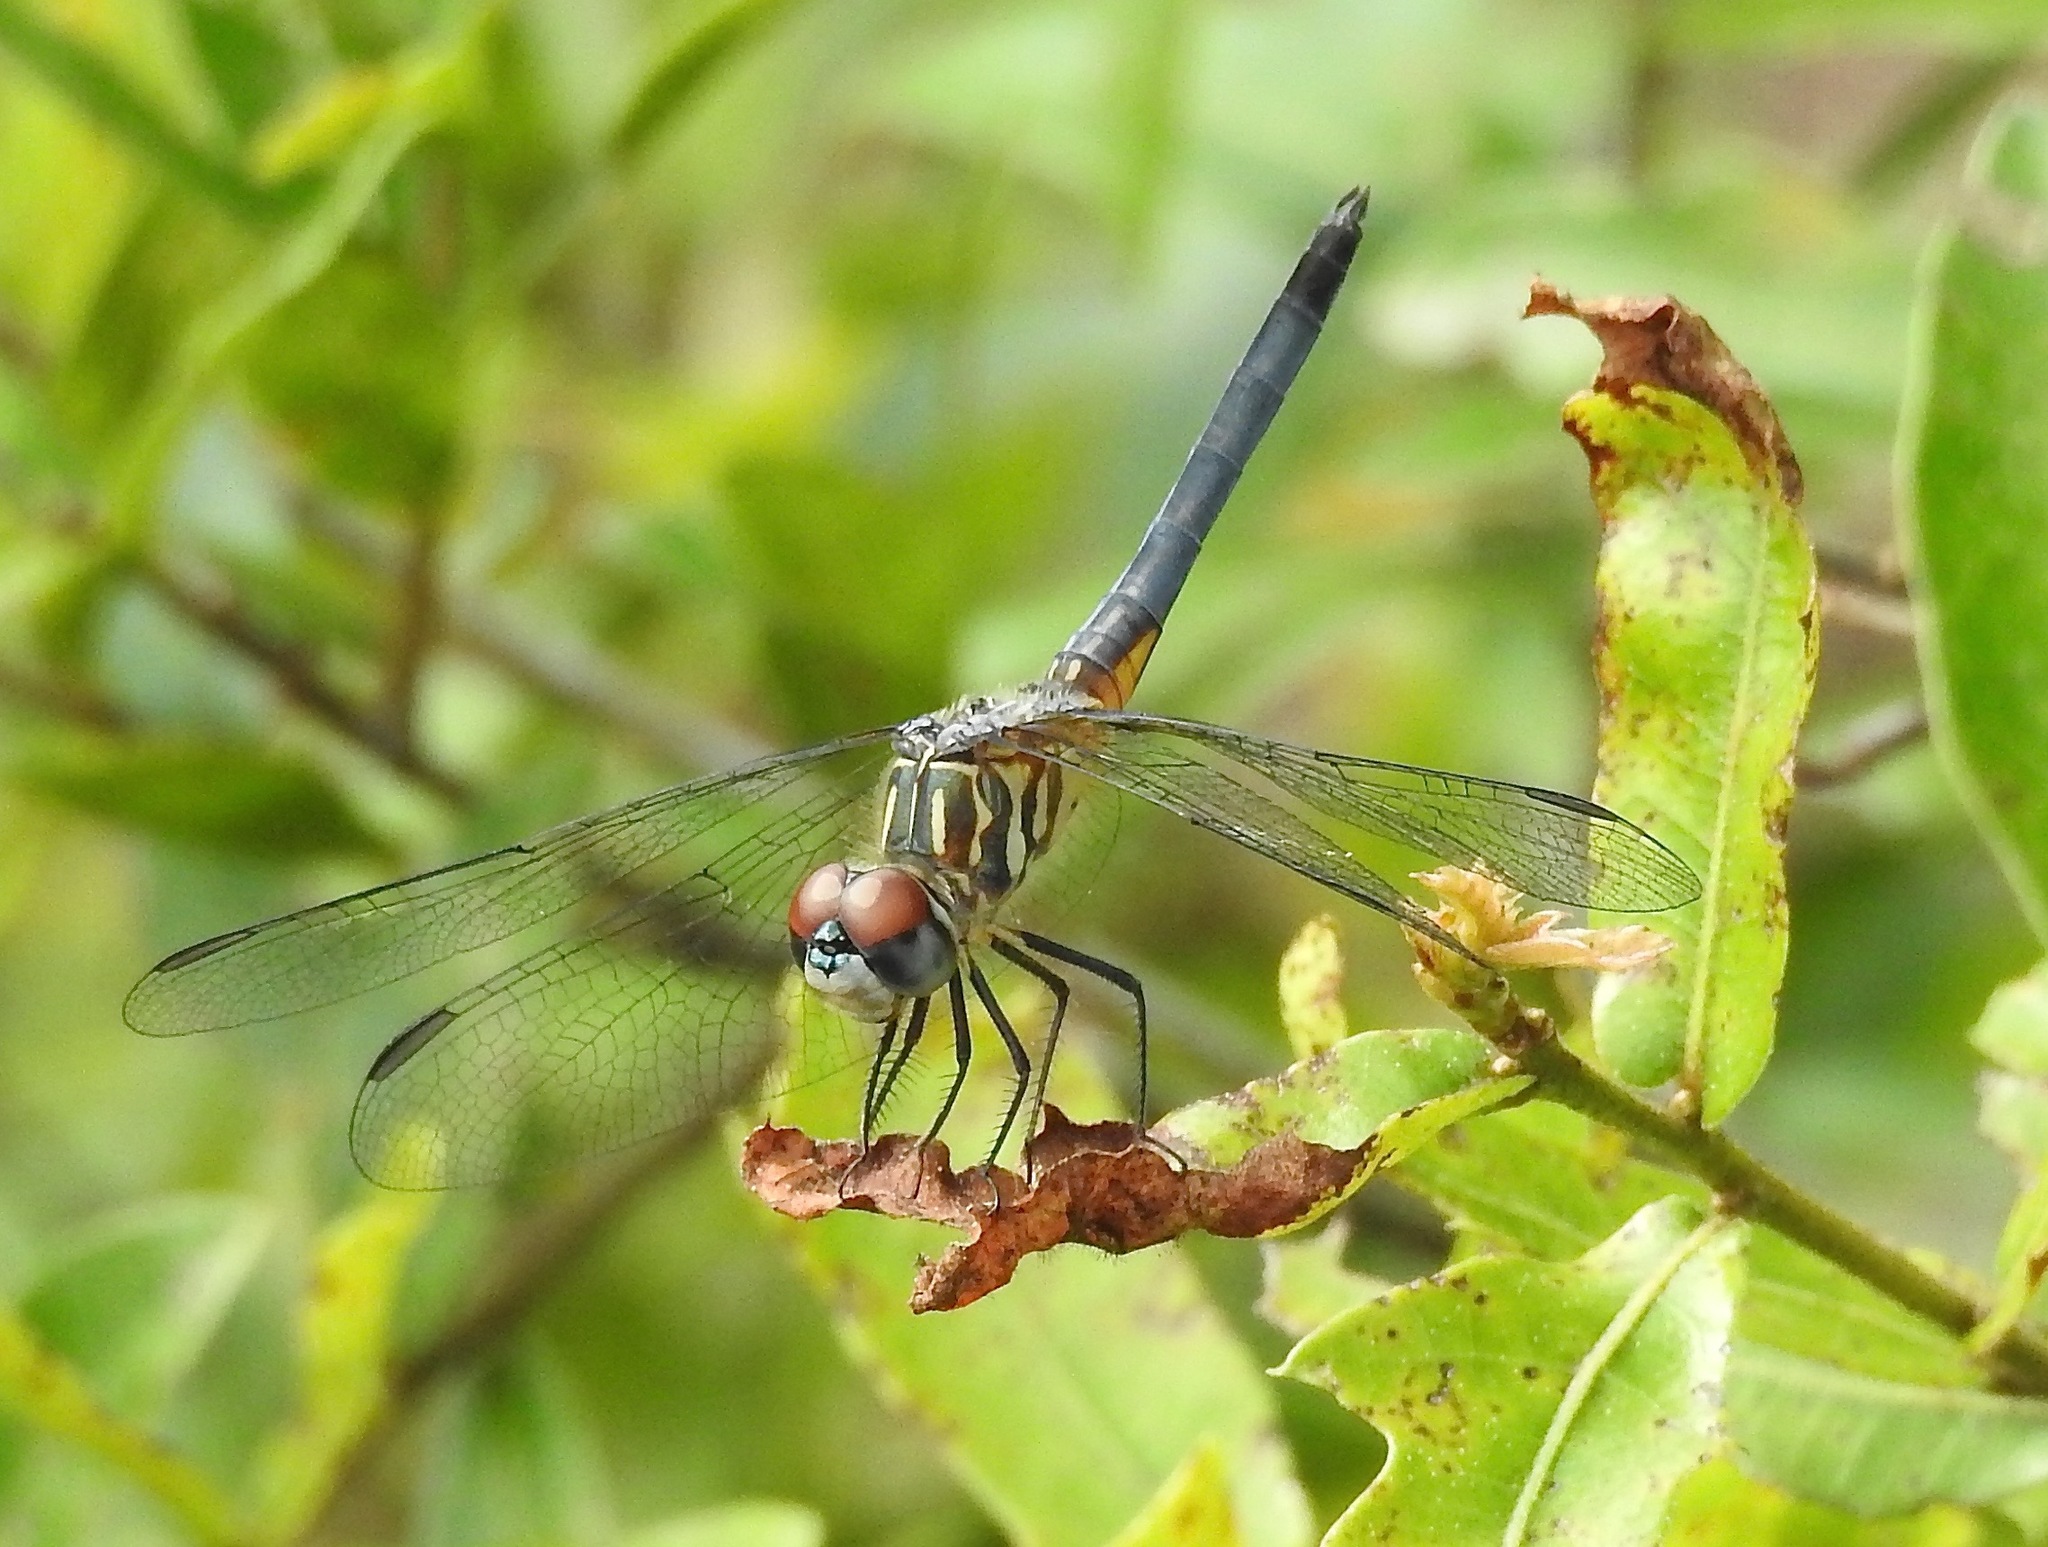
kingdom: Animalia
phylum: Arthropoda
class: Insecta
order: Odonata
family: Libellulidae
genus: Pachydiplax
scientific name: Pachydiplax longipennis
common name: Blue dasher
